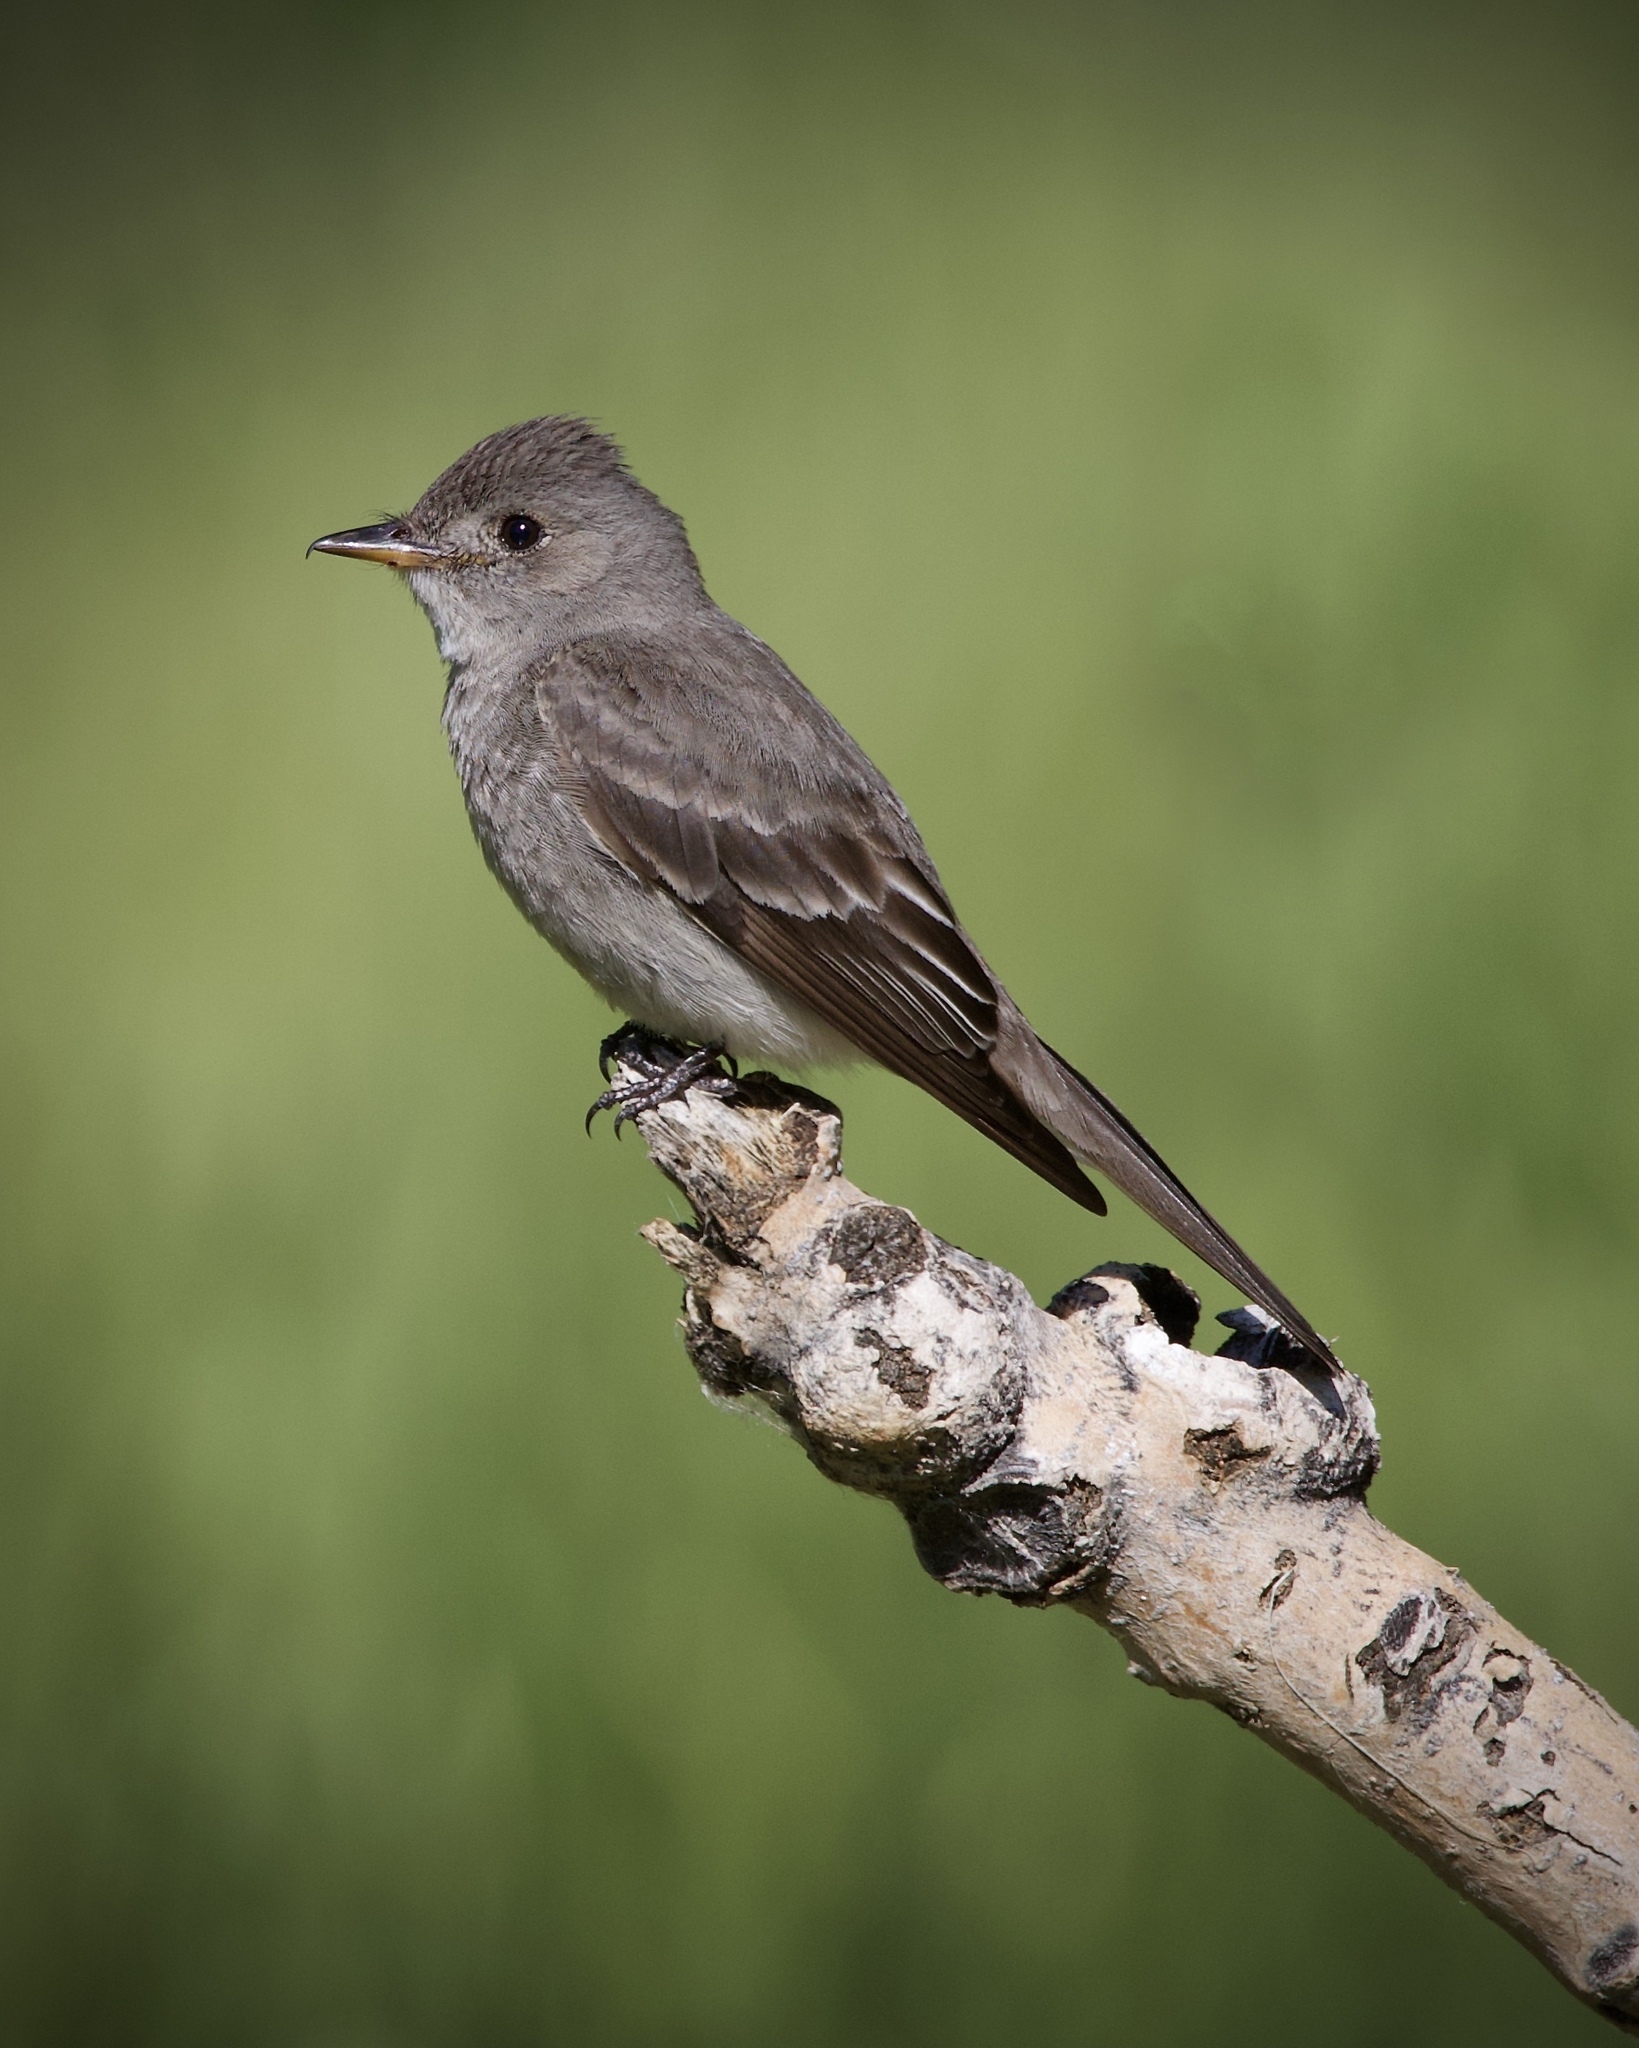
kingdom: Animalia
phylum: Chordata
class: Aves
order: Passeriformes
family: Tyrannidae
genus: Contopus
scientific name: Contopus sordidulus
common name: Western wood-pewee
